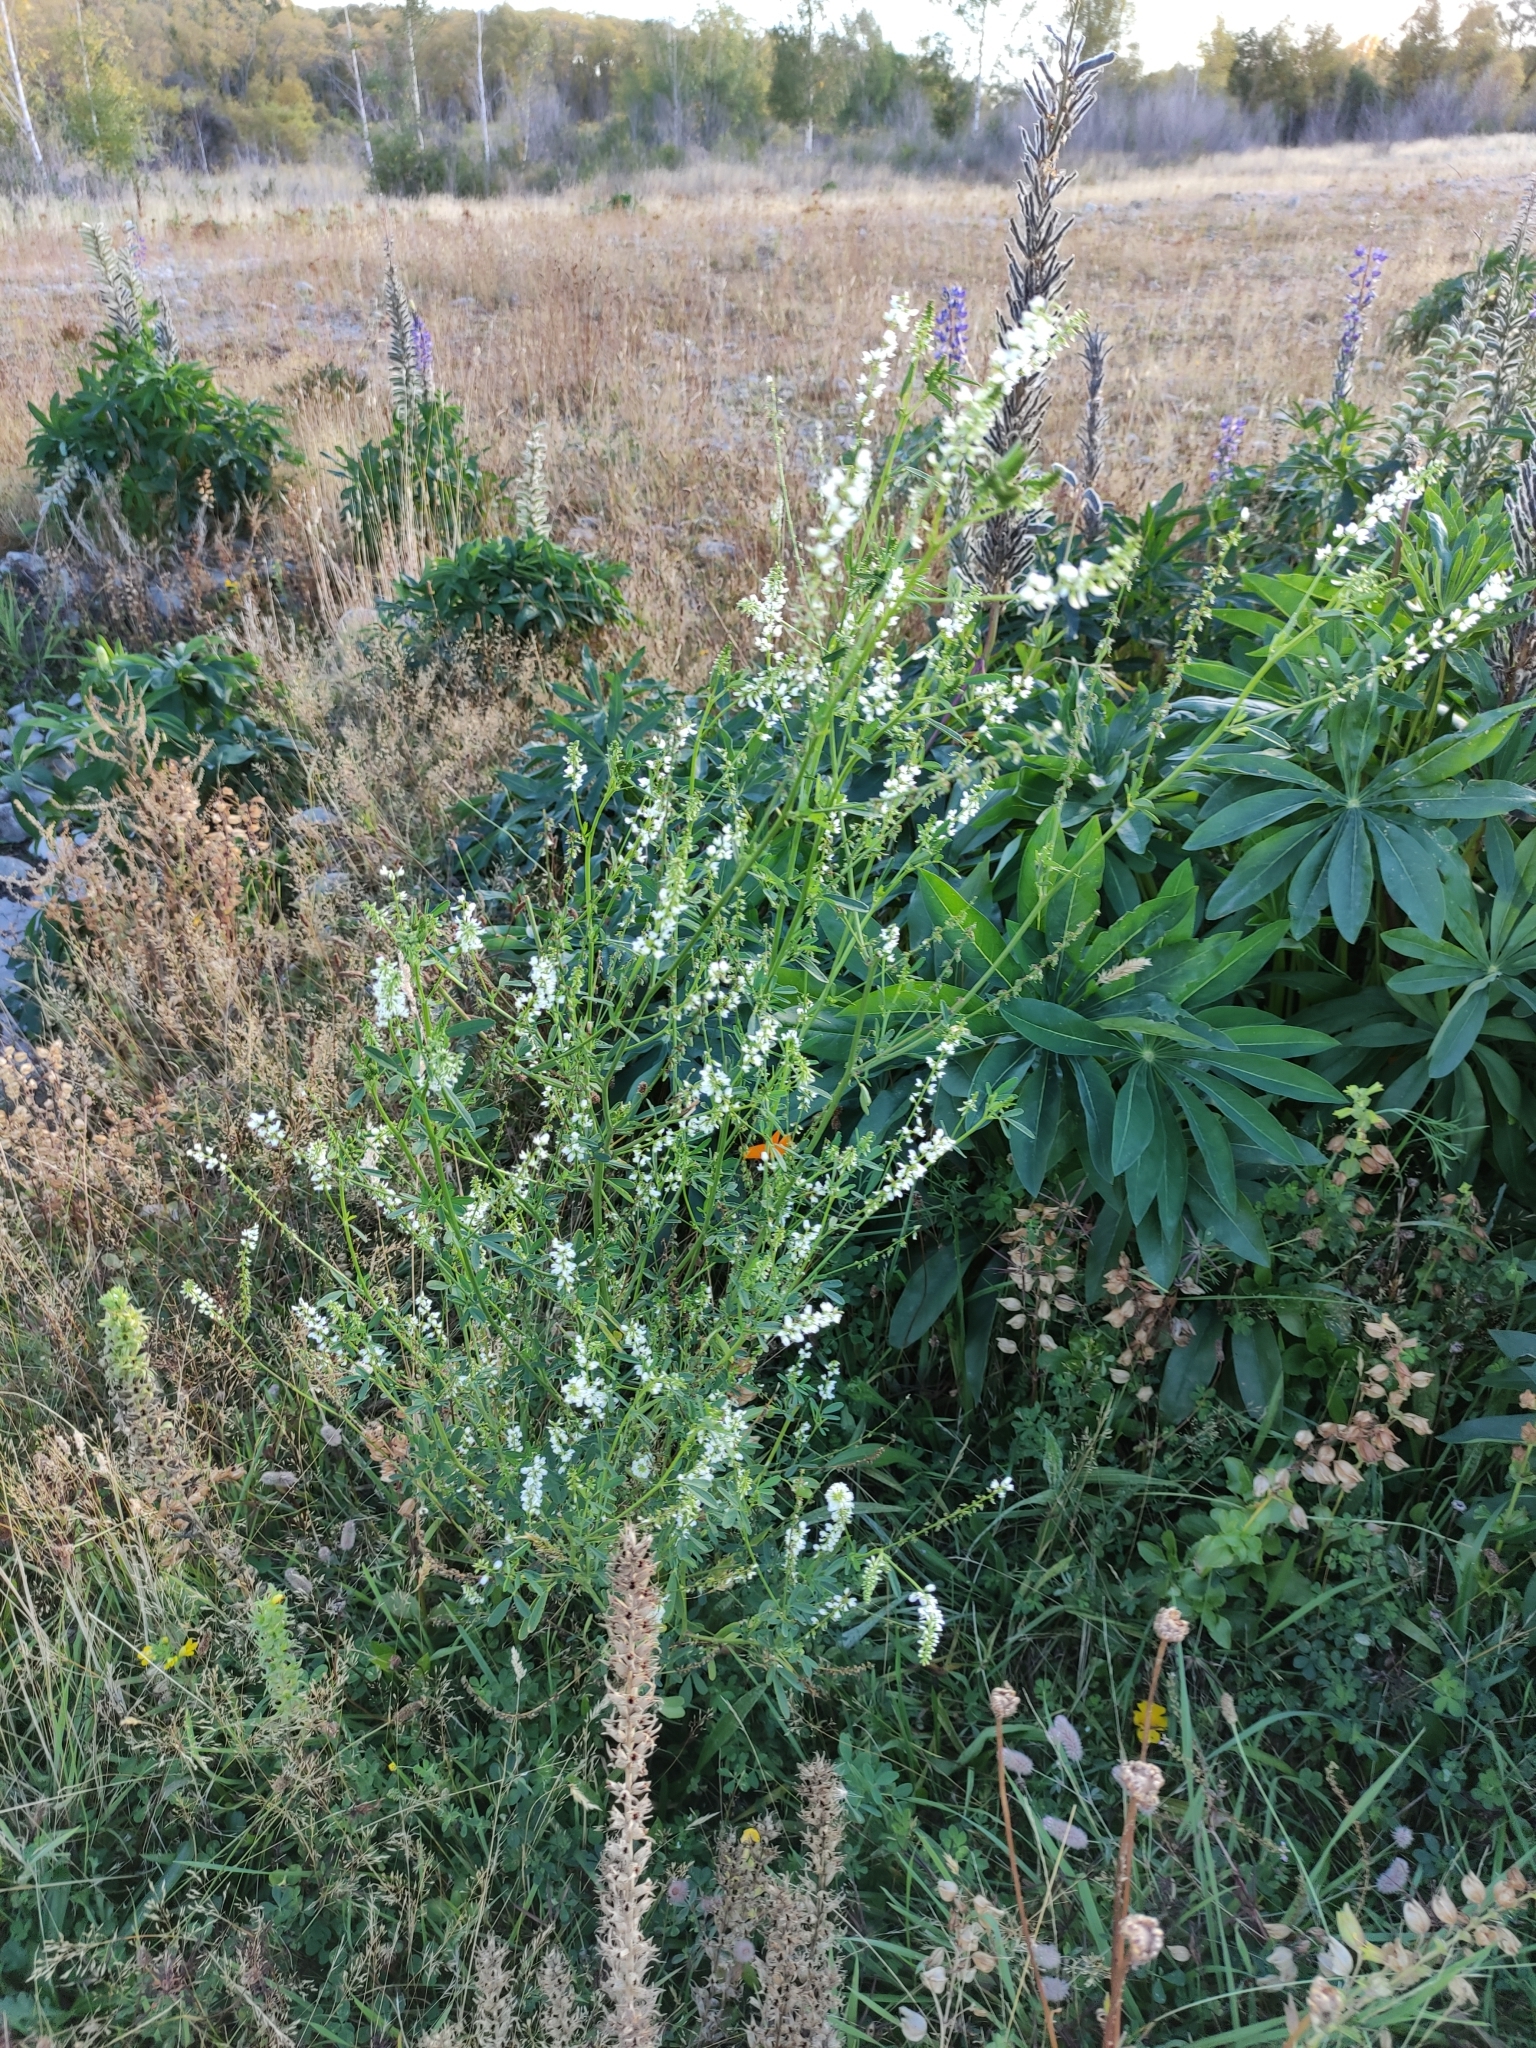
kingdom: Plantae
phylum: Tracheophyta
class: Magnoliopsida
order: Fabales
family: Fabaceae
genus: Melilotus
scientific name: Melilotus albus
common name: White melilot
